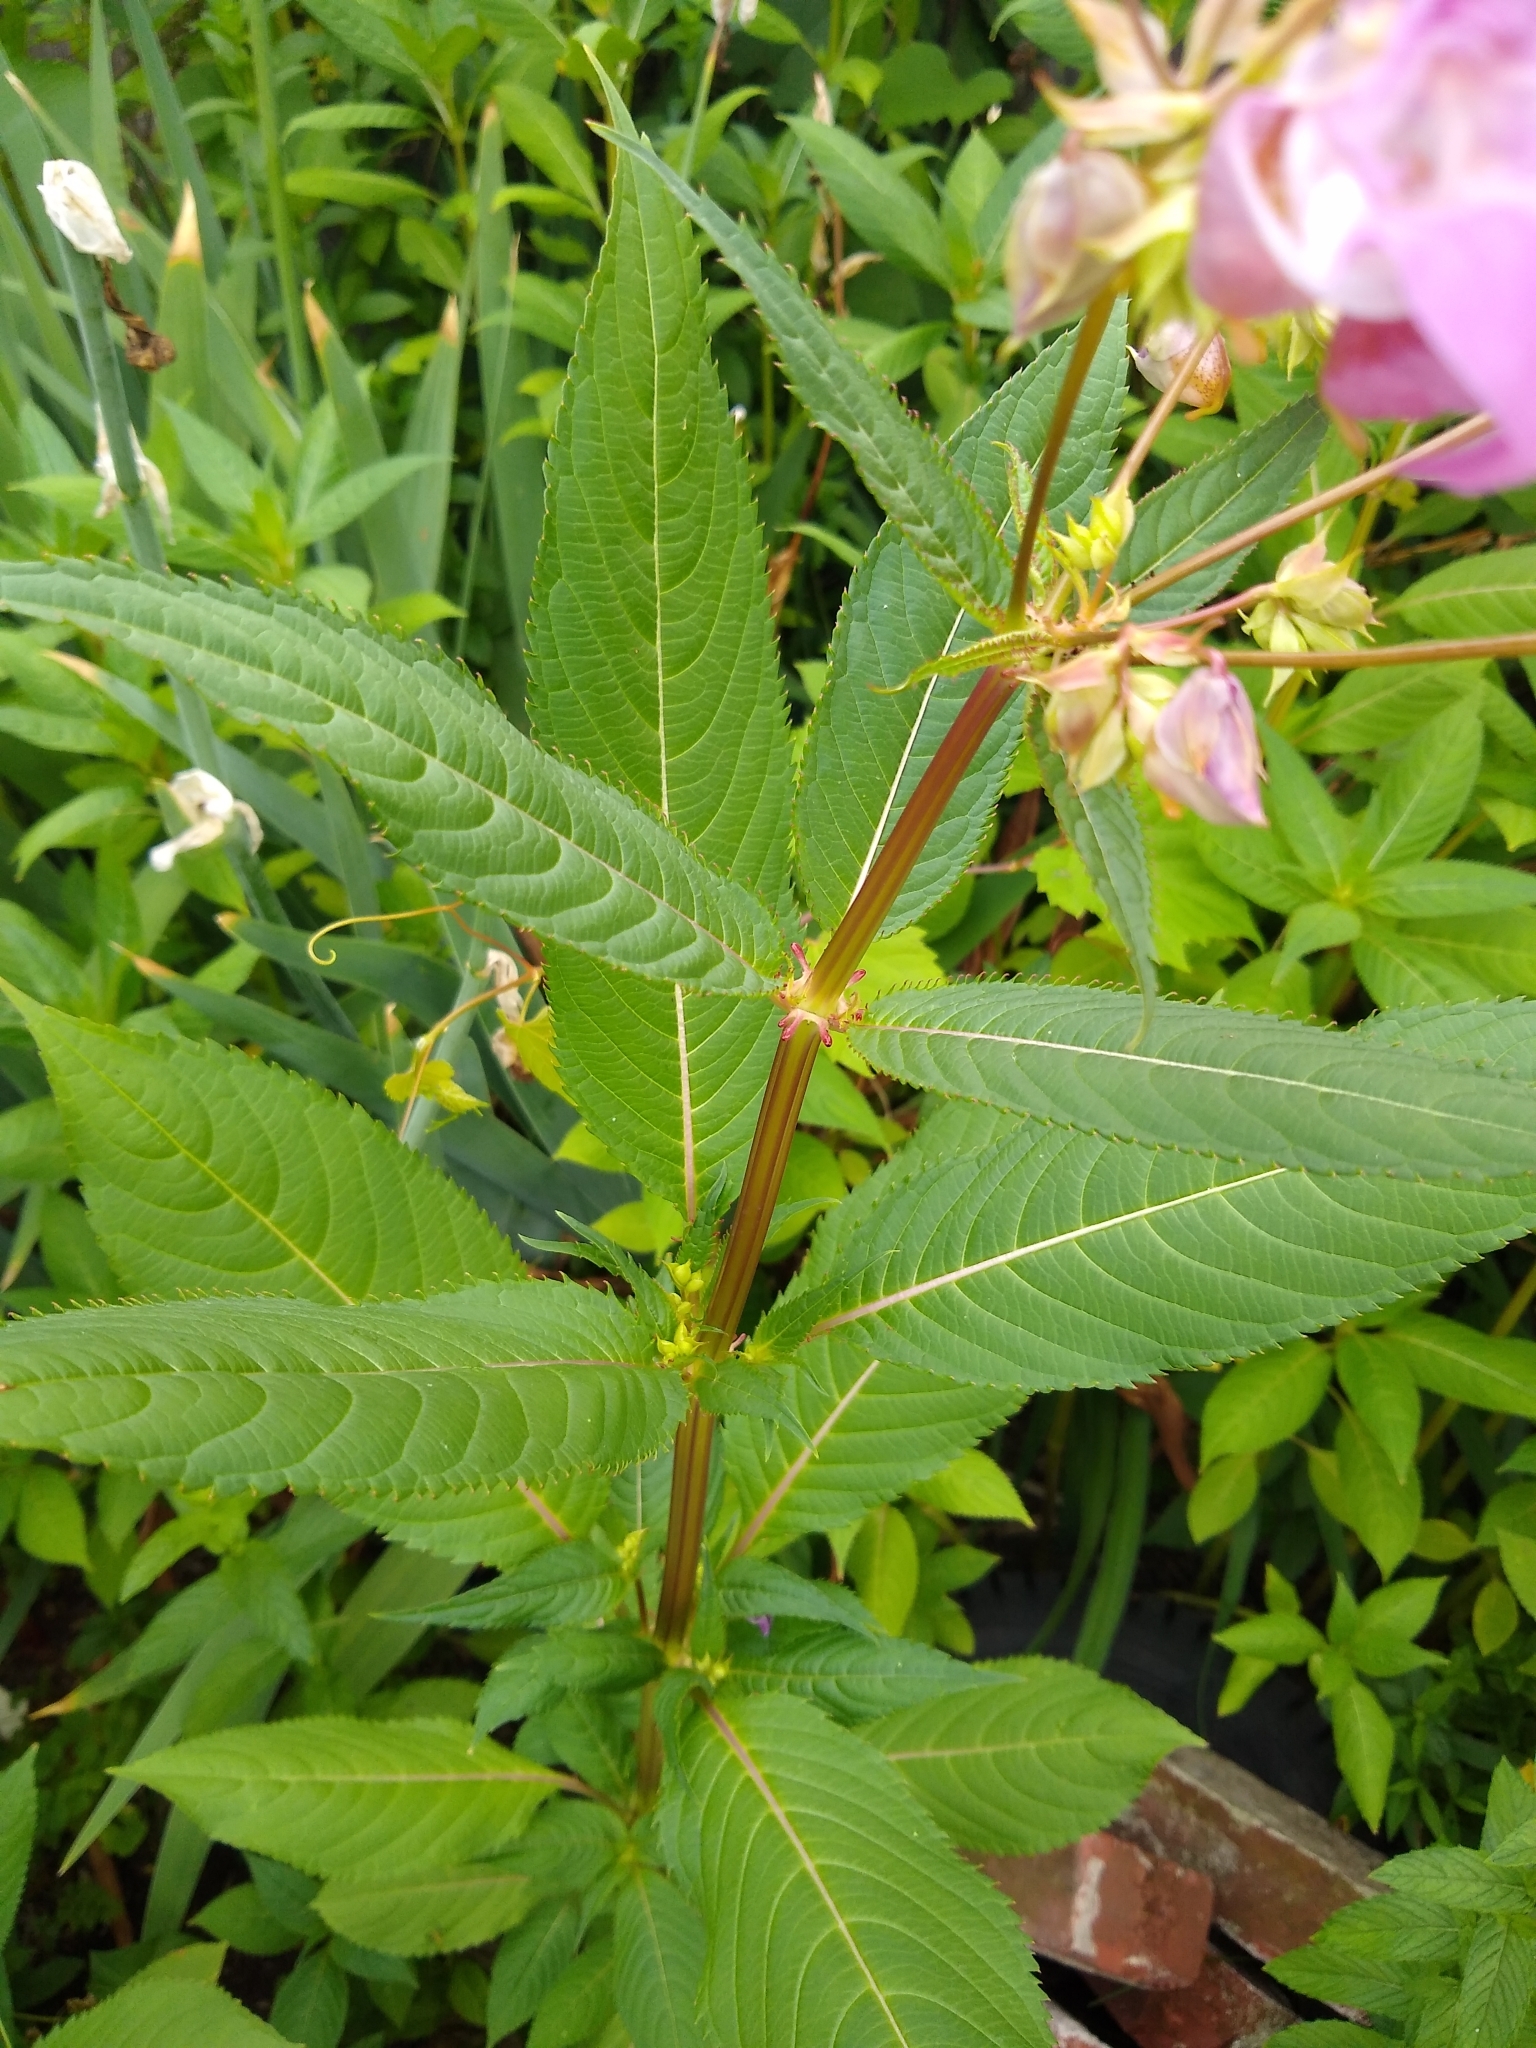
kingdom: Plantae
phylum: Tracheophyta
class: Magnoliopsida
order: Ericales
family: Balsaminaceae
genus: Impatiens
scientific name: Impatiens glandulifera
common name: Himalayan balsam
